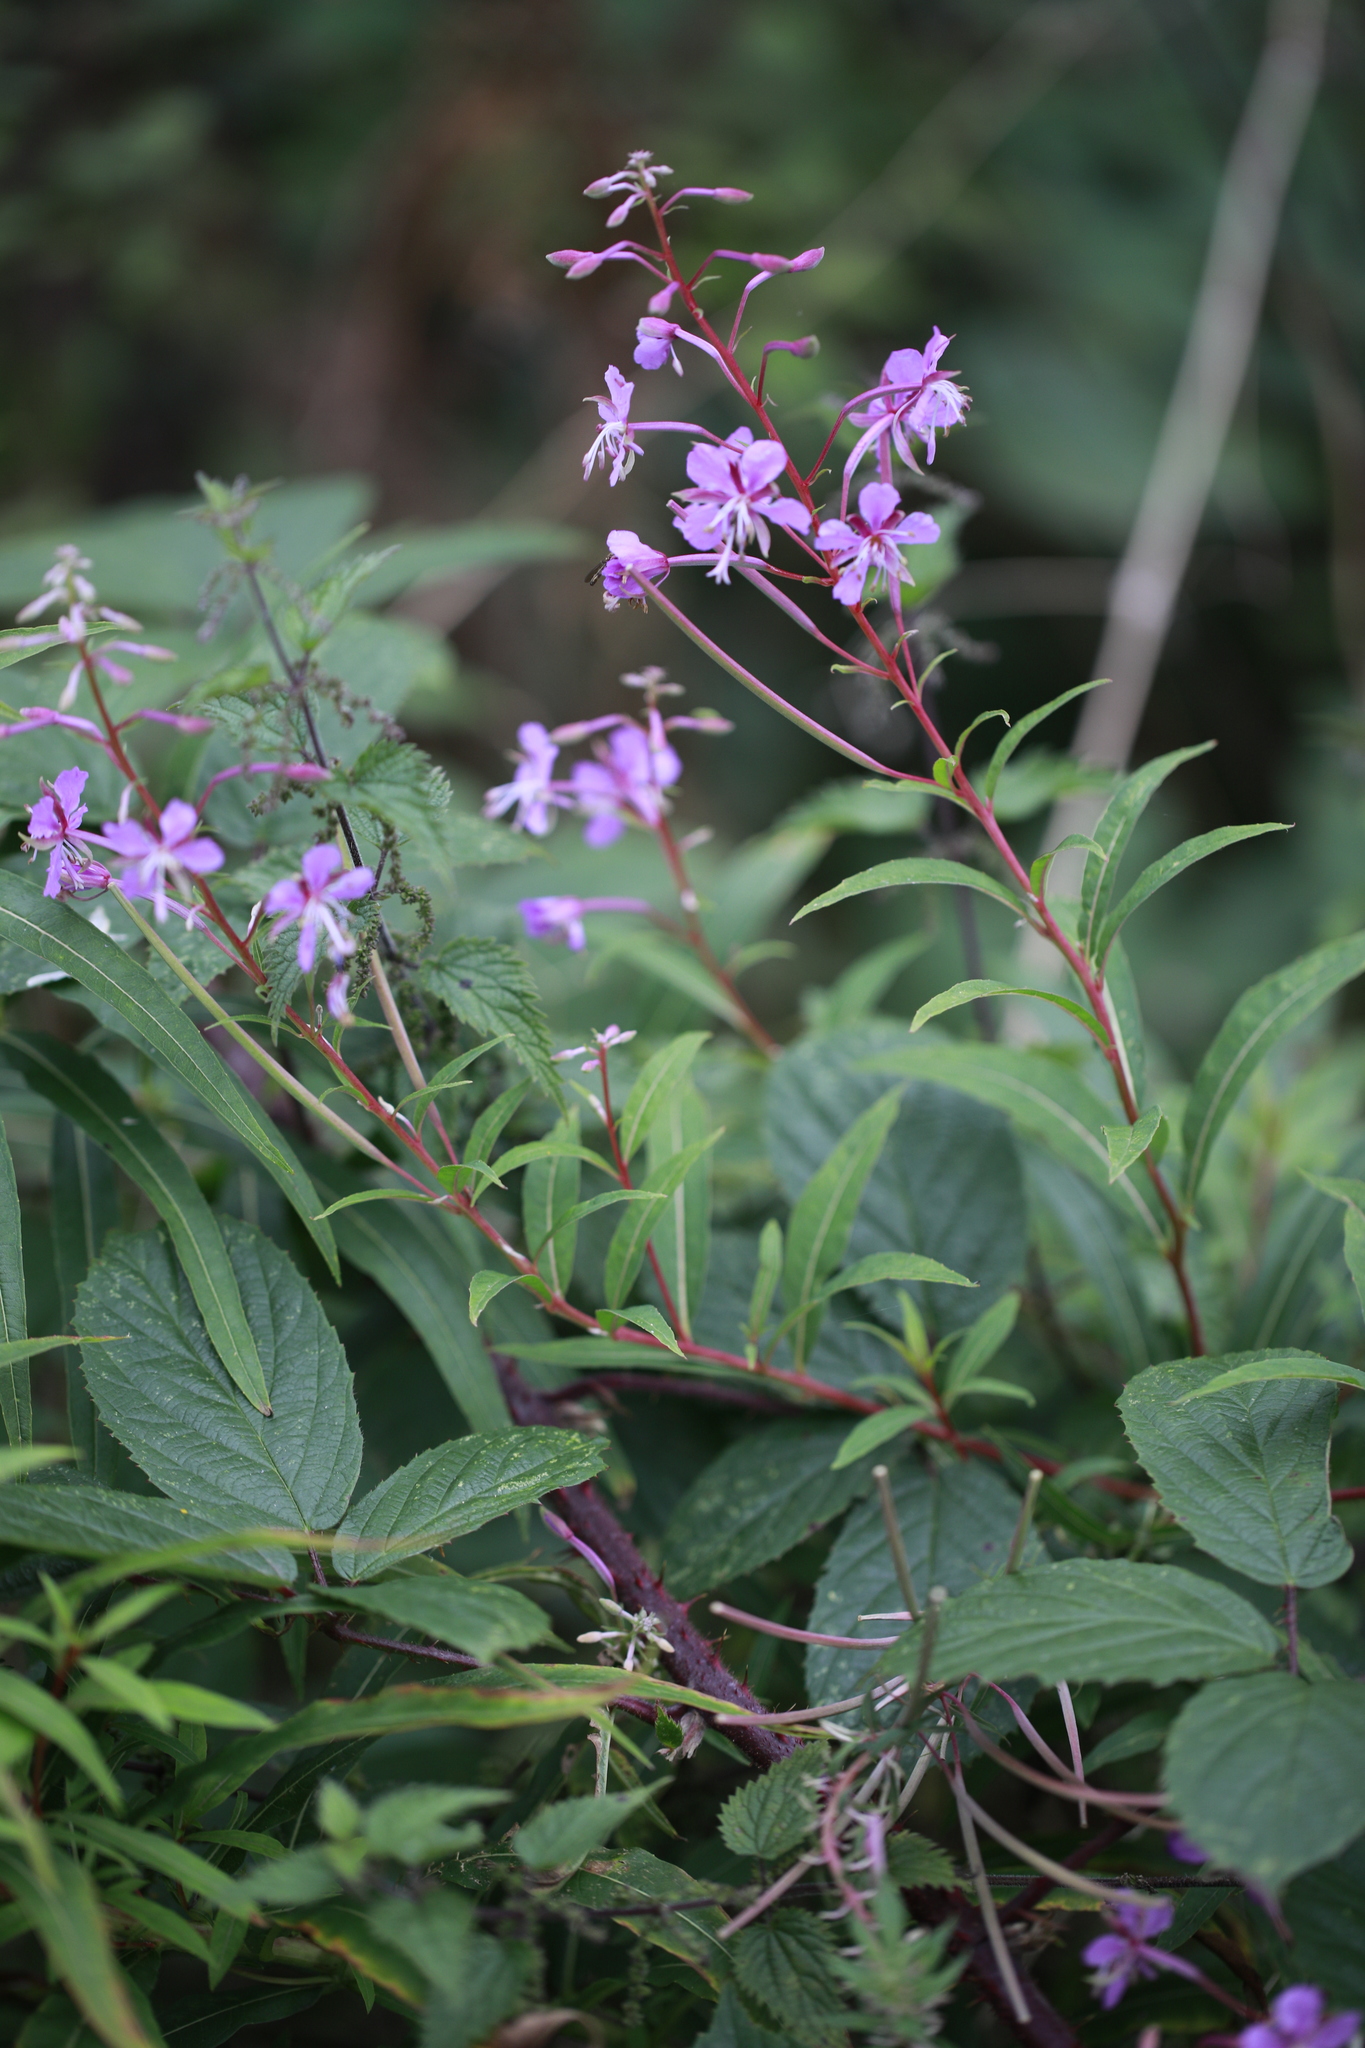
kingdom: Plantae
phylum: Tracheophyta
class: Magnoliopsida
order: Myrtales
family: Onagraceae
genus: Chamaenerion
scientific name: Chamaenerion angustifolium
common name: Fireweed
